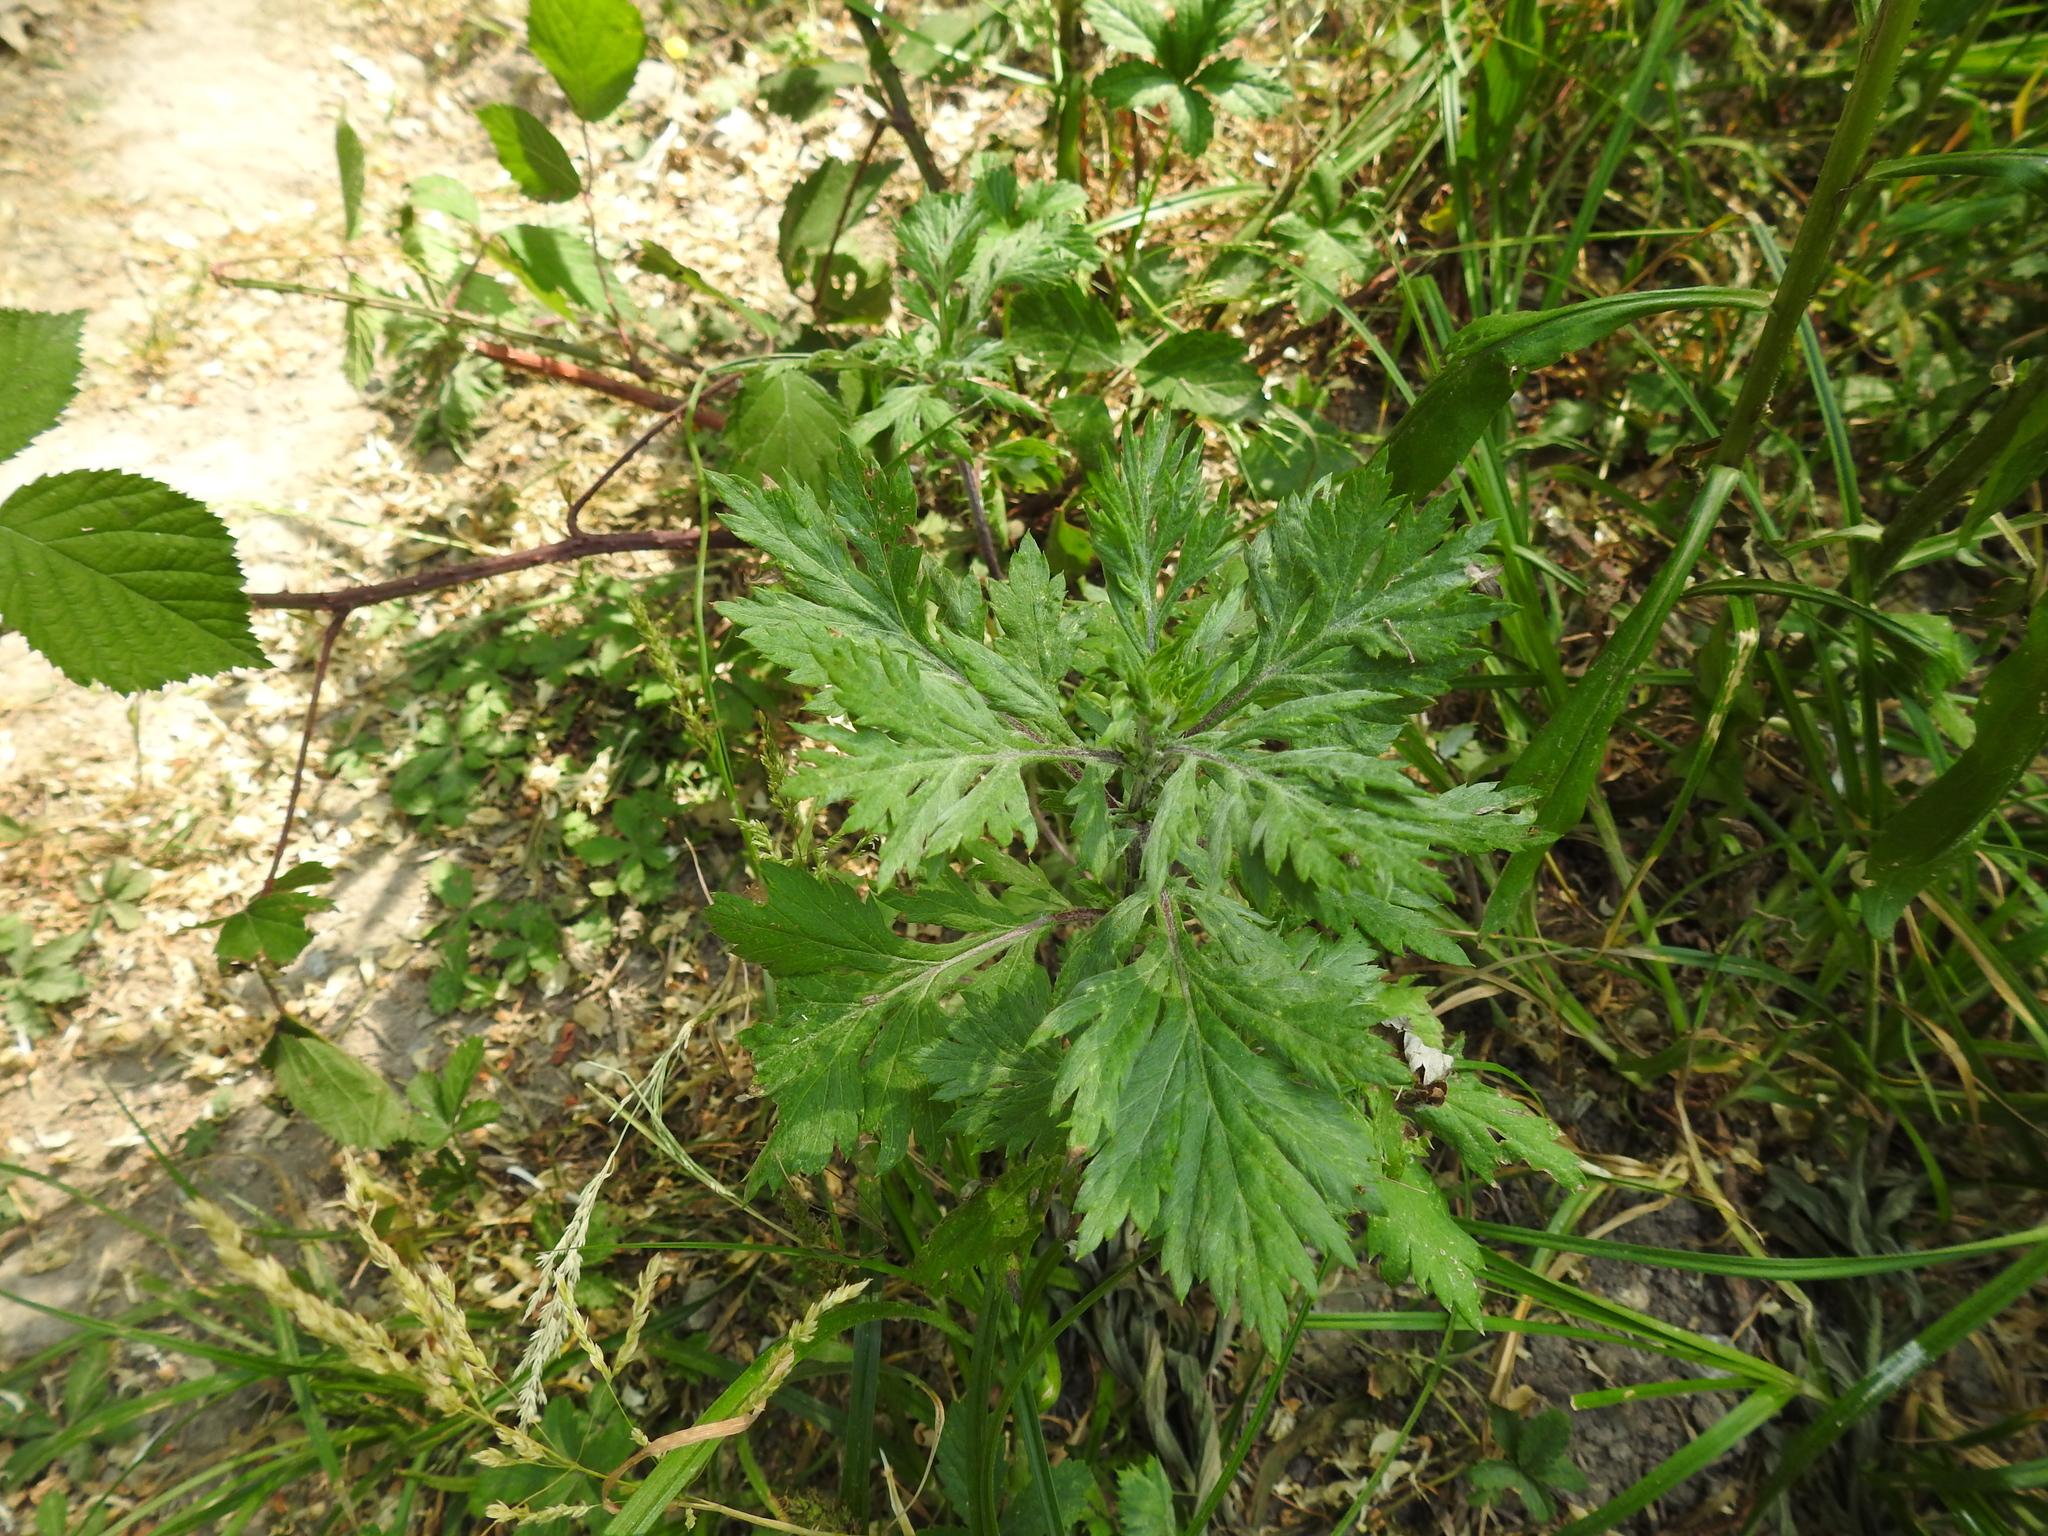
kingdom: Plantae
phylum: Tracheophyta
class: Magnoliopsida
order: Asterales
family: Asteraceae
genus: Artemisia
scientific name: Artemisia vulgaris
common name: Mugwort
